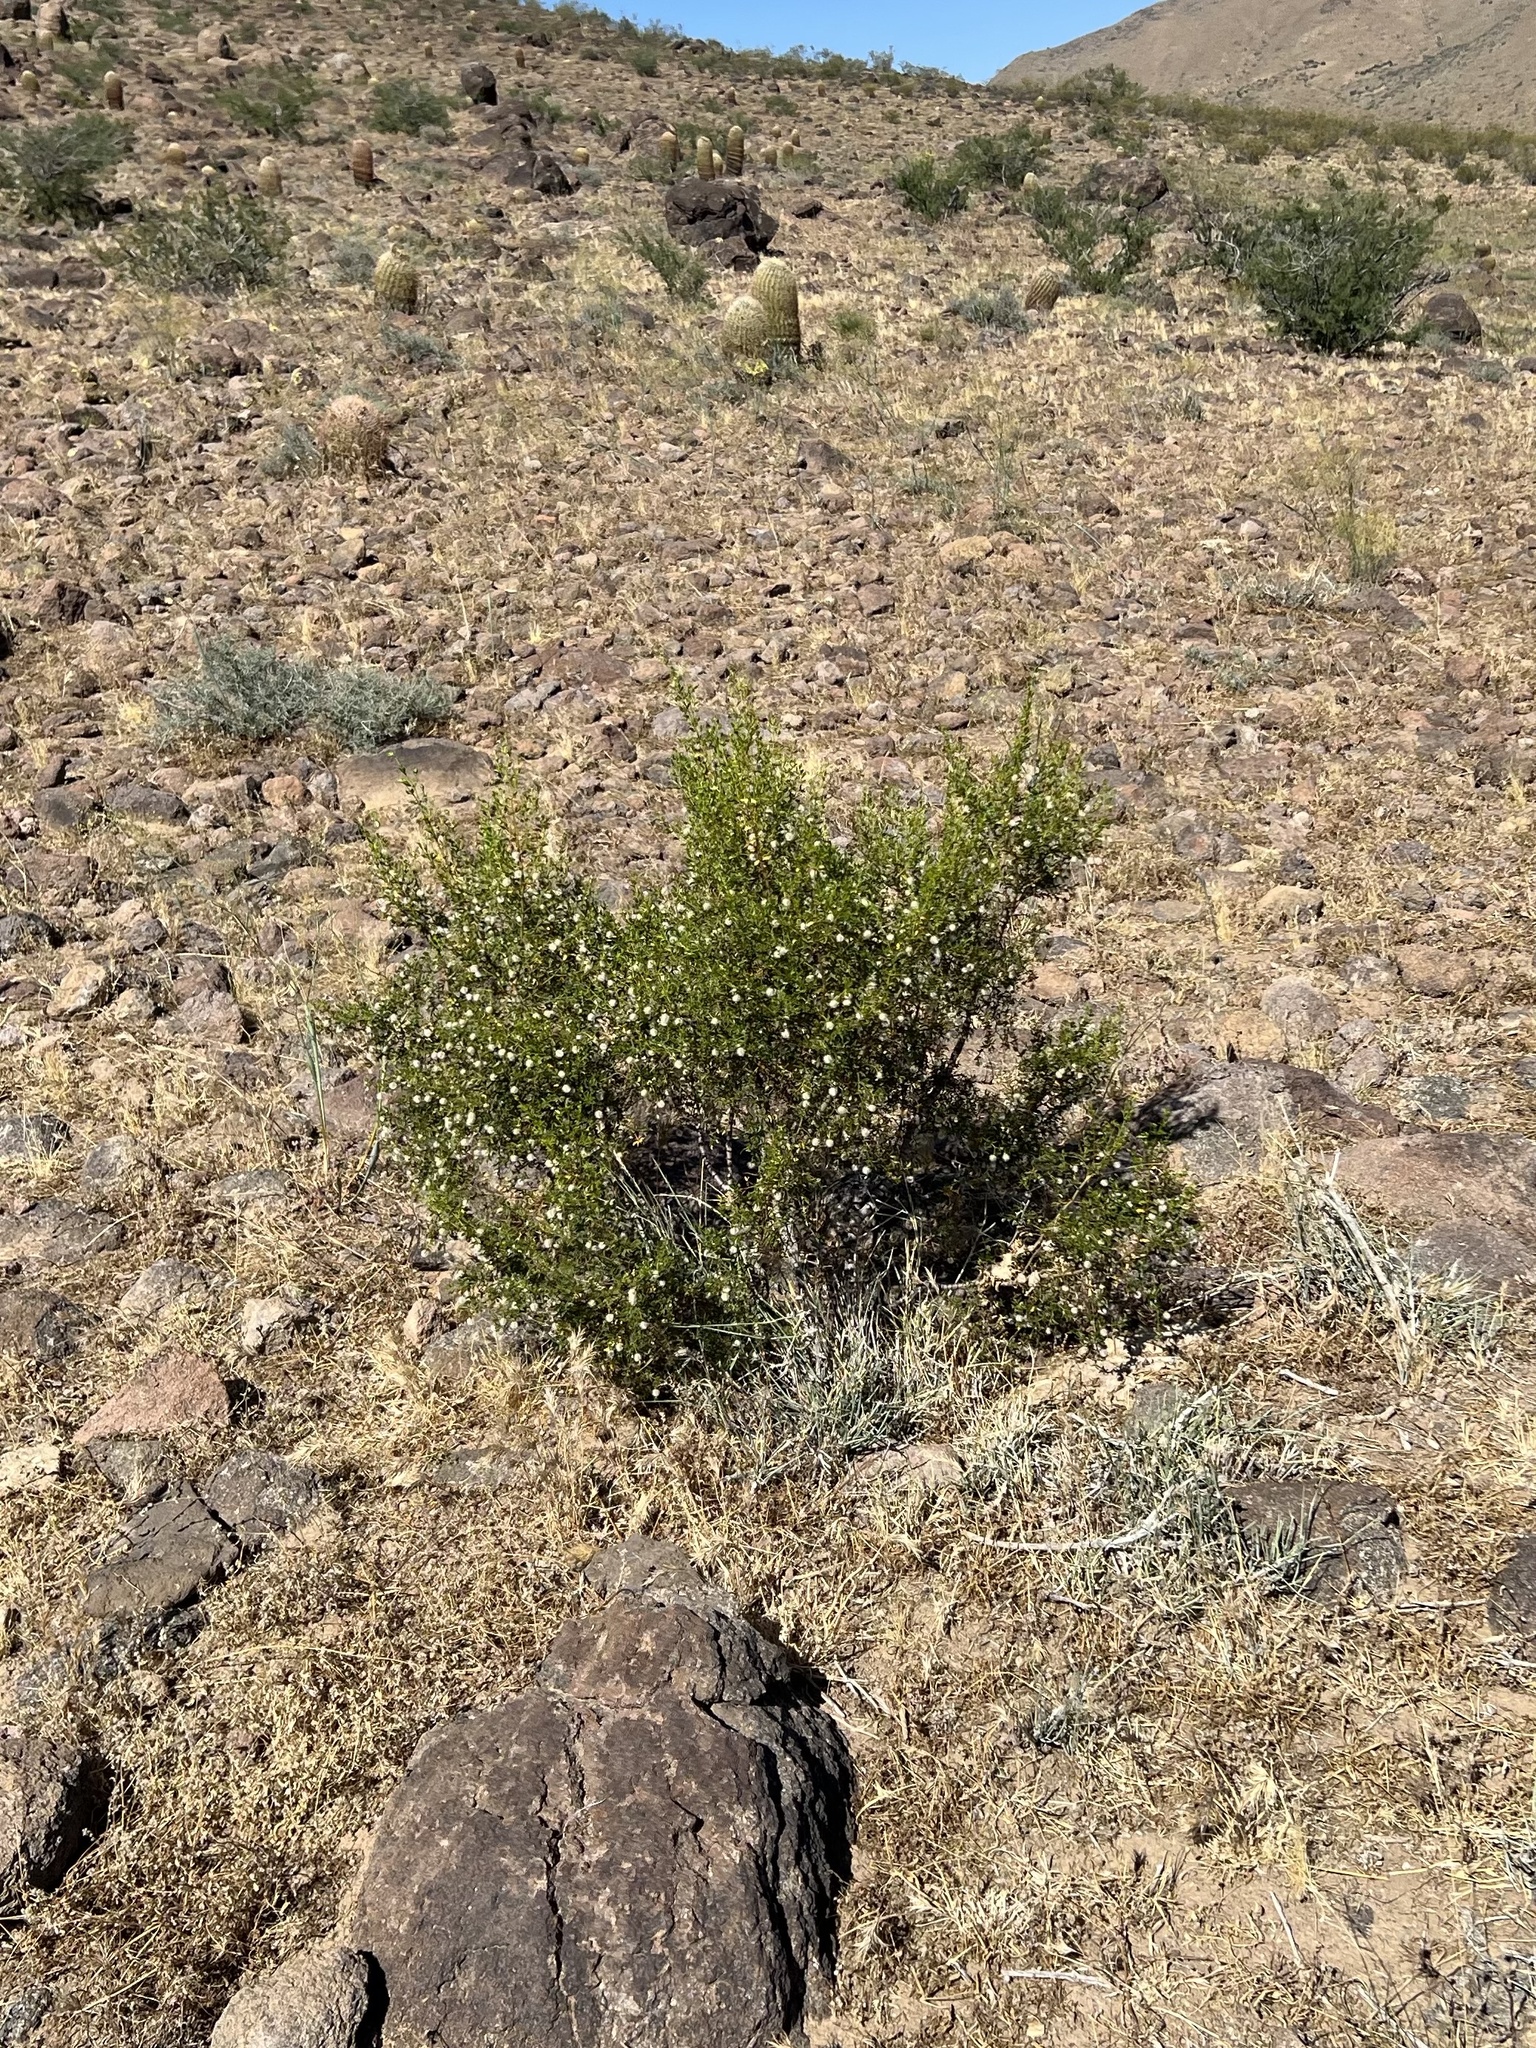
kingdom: Plantae
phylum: Tracheophyta
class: Magnoliopsida
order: Zygophyllales
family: Zygophyllaceae
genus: Larrea
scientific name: Larrea tridentata
